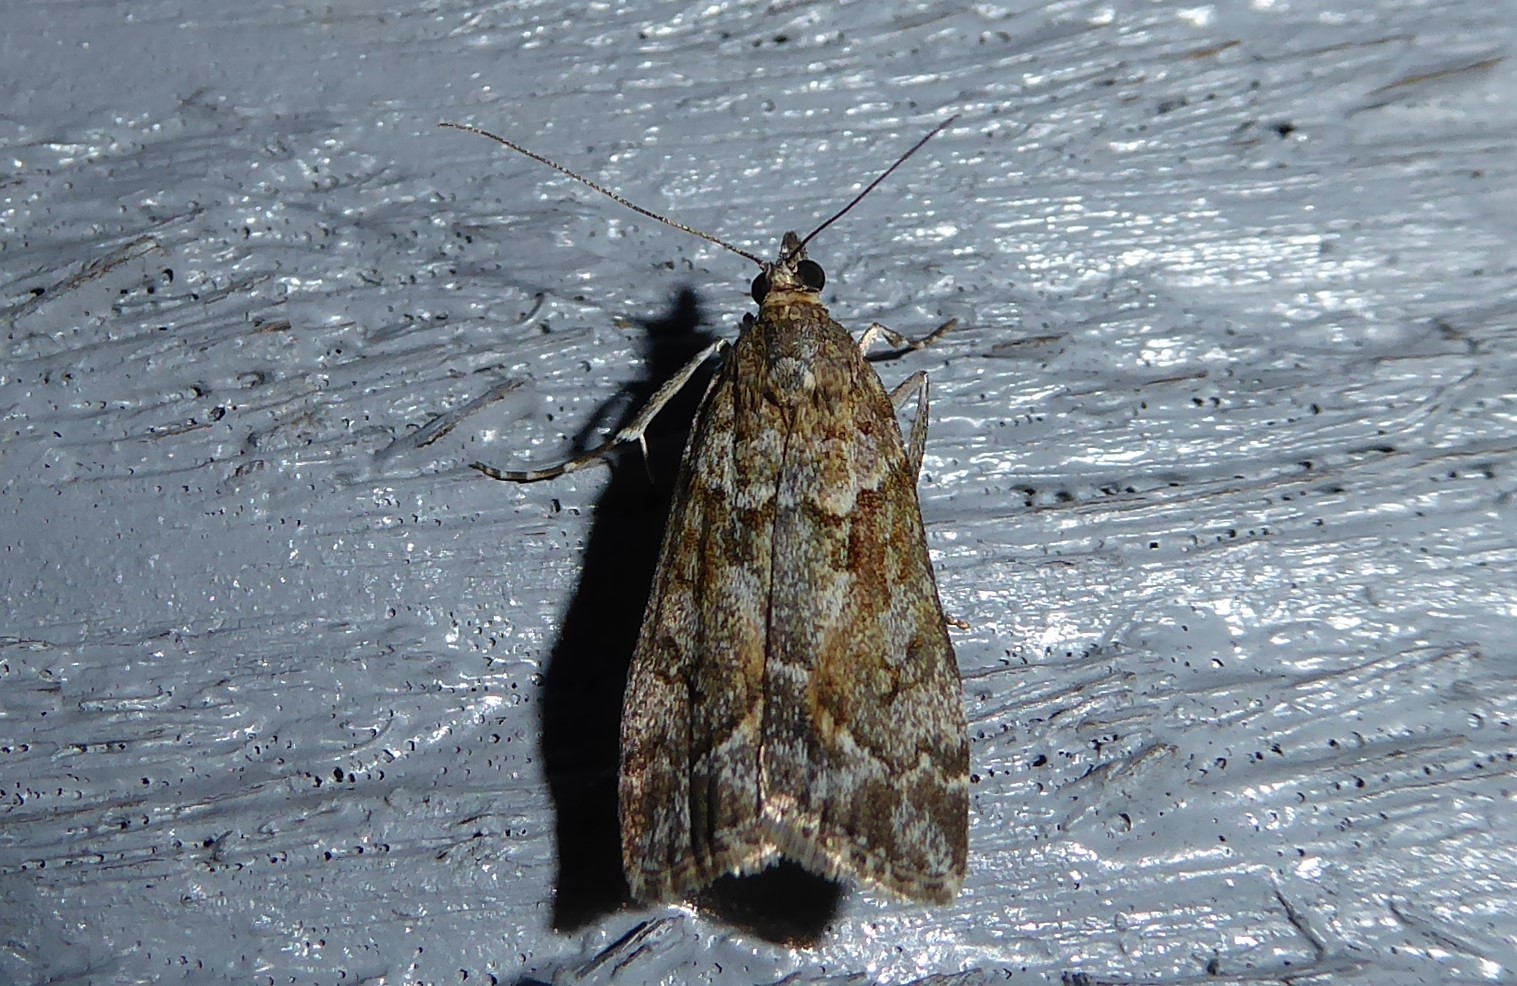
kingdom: Animalia
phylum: Arthropoda
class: Insecta
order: Lepidoptera
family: Crambidae
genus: Eudonia
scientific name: Eudonia submarginalis
